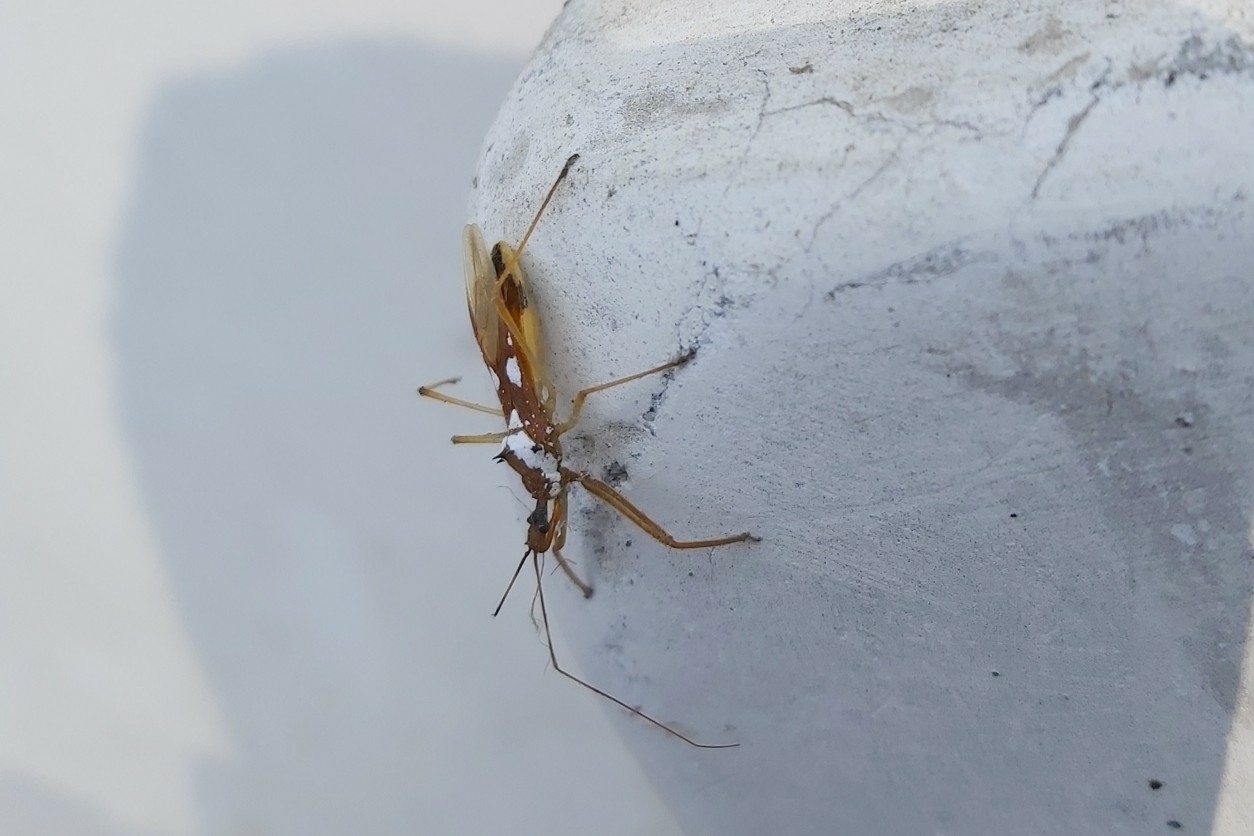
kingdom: Animalia
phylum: Arthropoda
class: Insecta
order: Hemiptera
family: Reduviidae
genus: Epidaus
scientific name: Epidaus famulus
